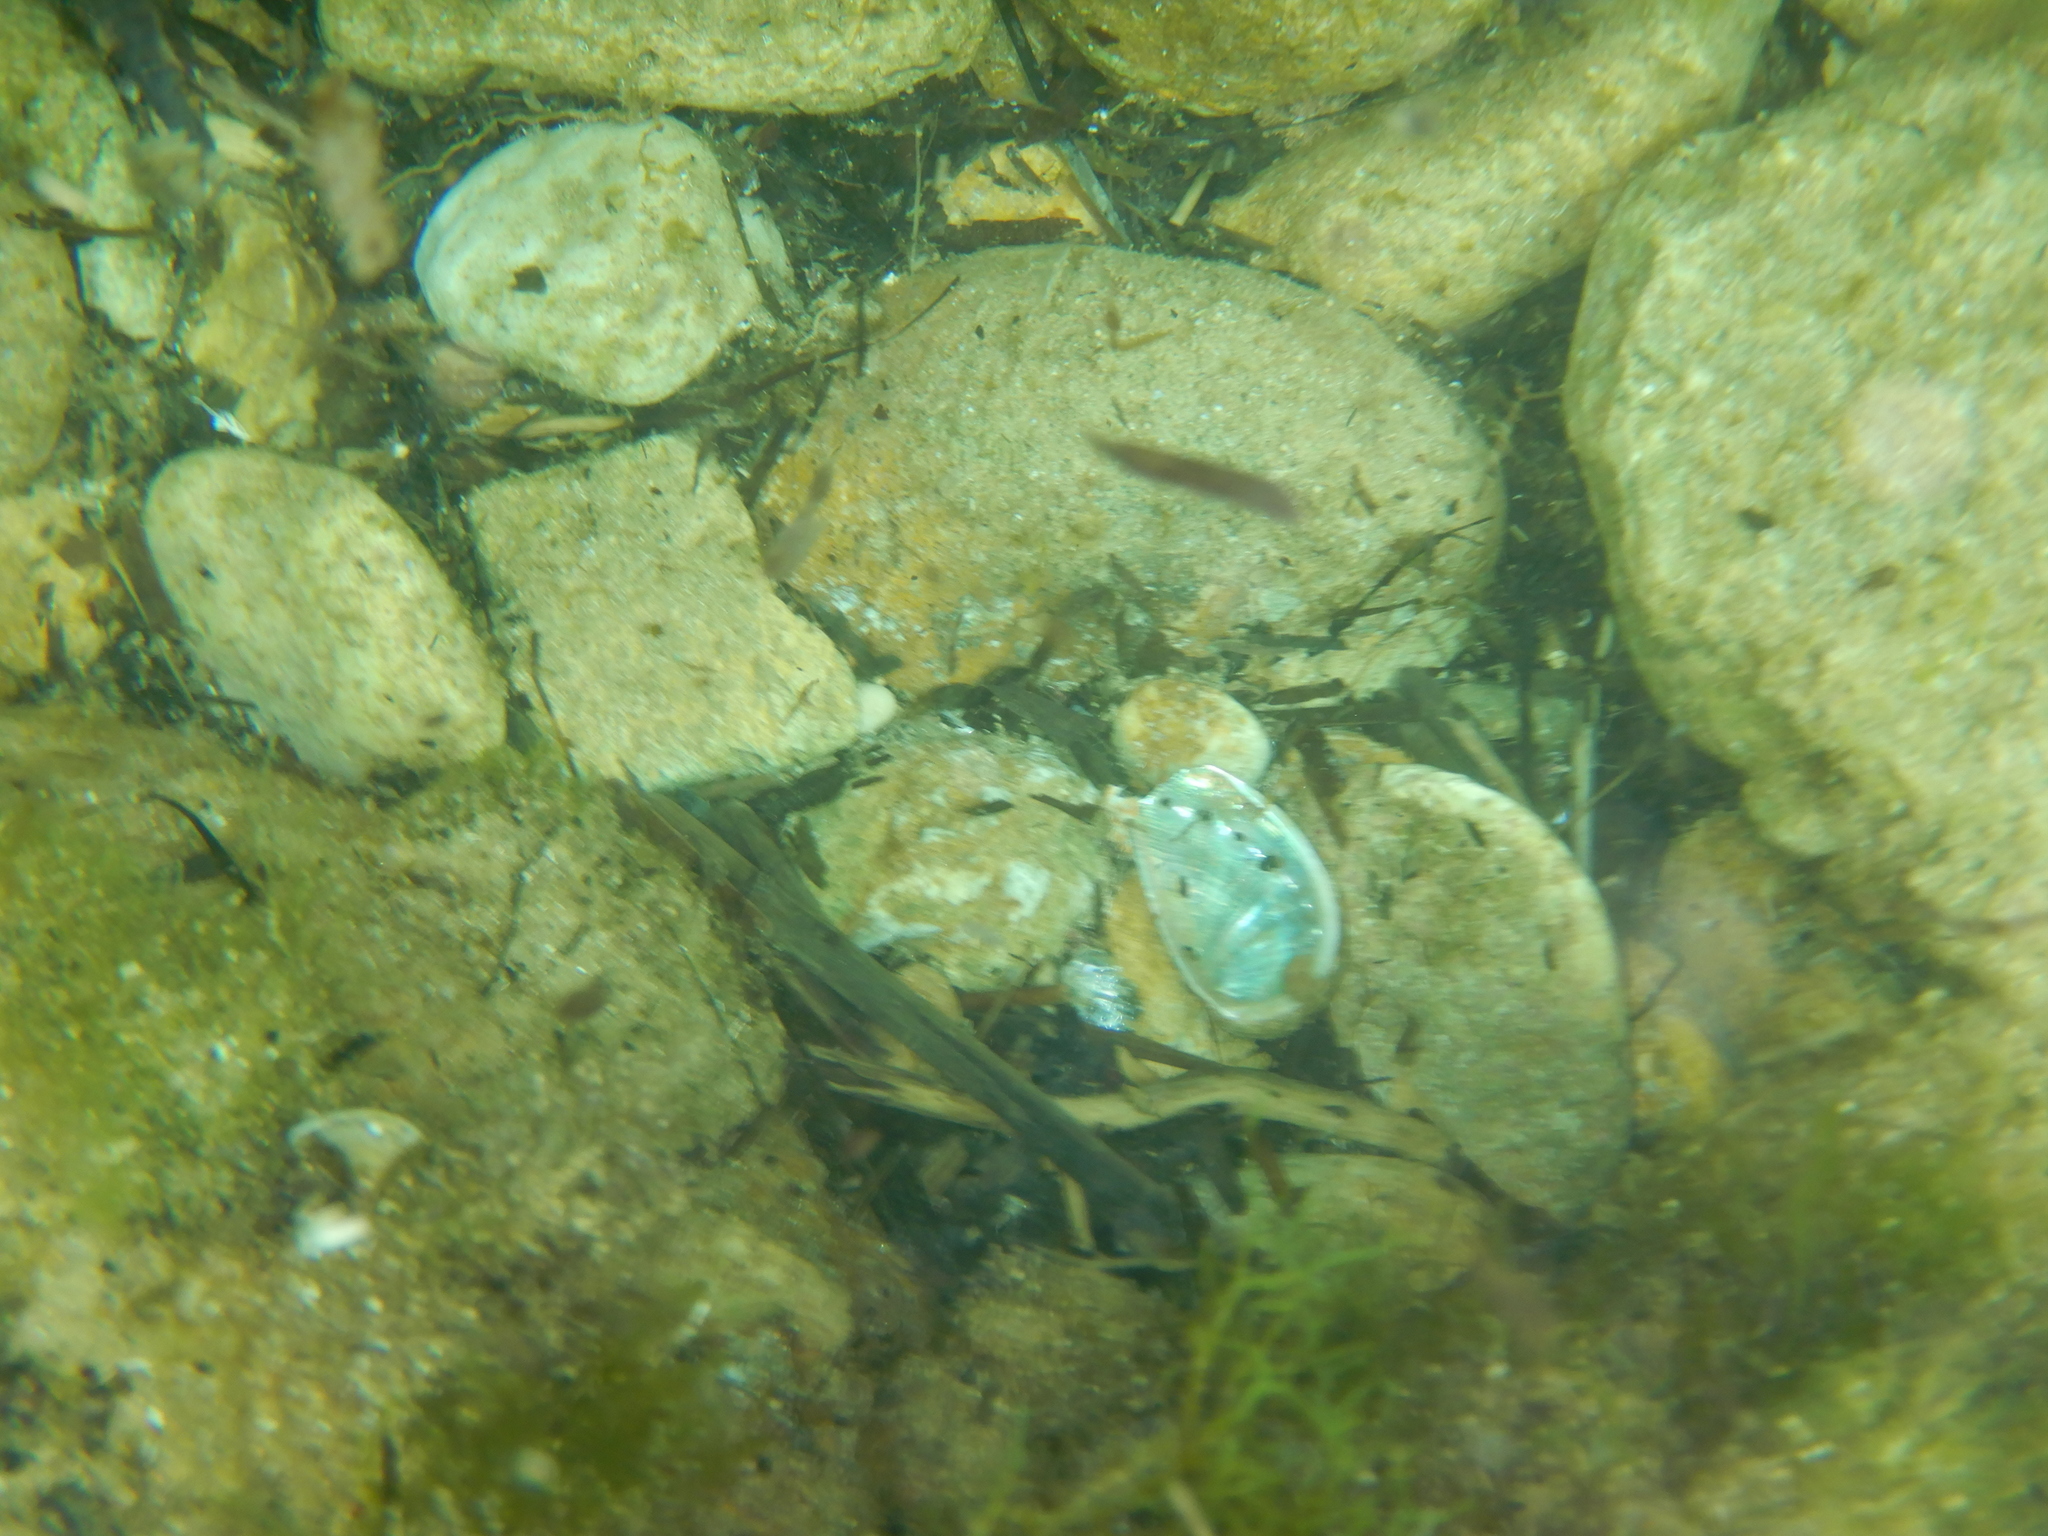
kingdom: Animalia
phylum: Mollusca
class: Gastropoda
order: Lepetellida
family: Haliotidae
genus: Haliotis
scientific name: Haliotis tuberculata
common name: Green ormer
